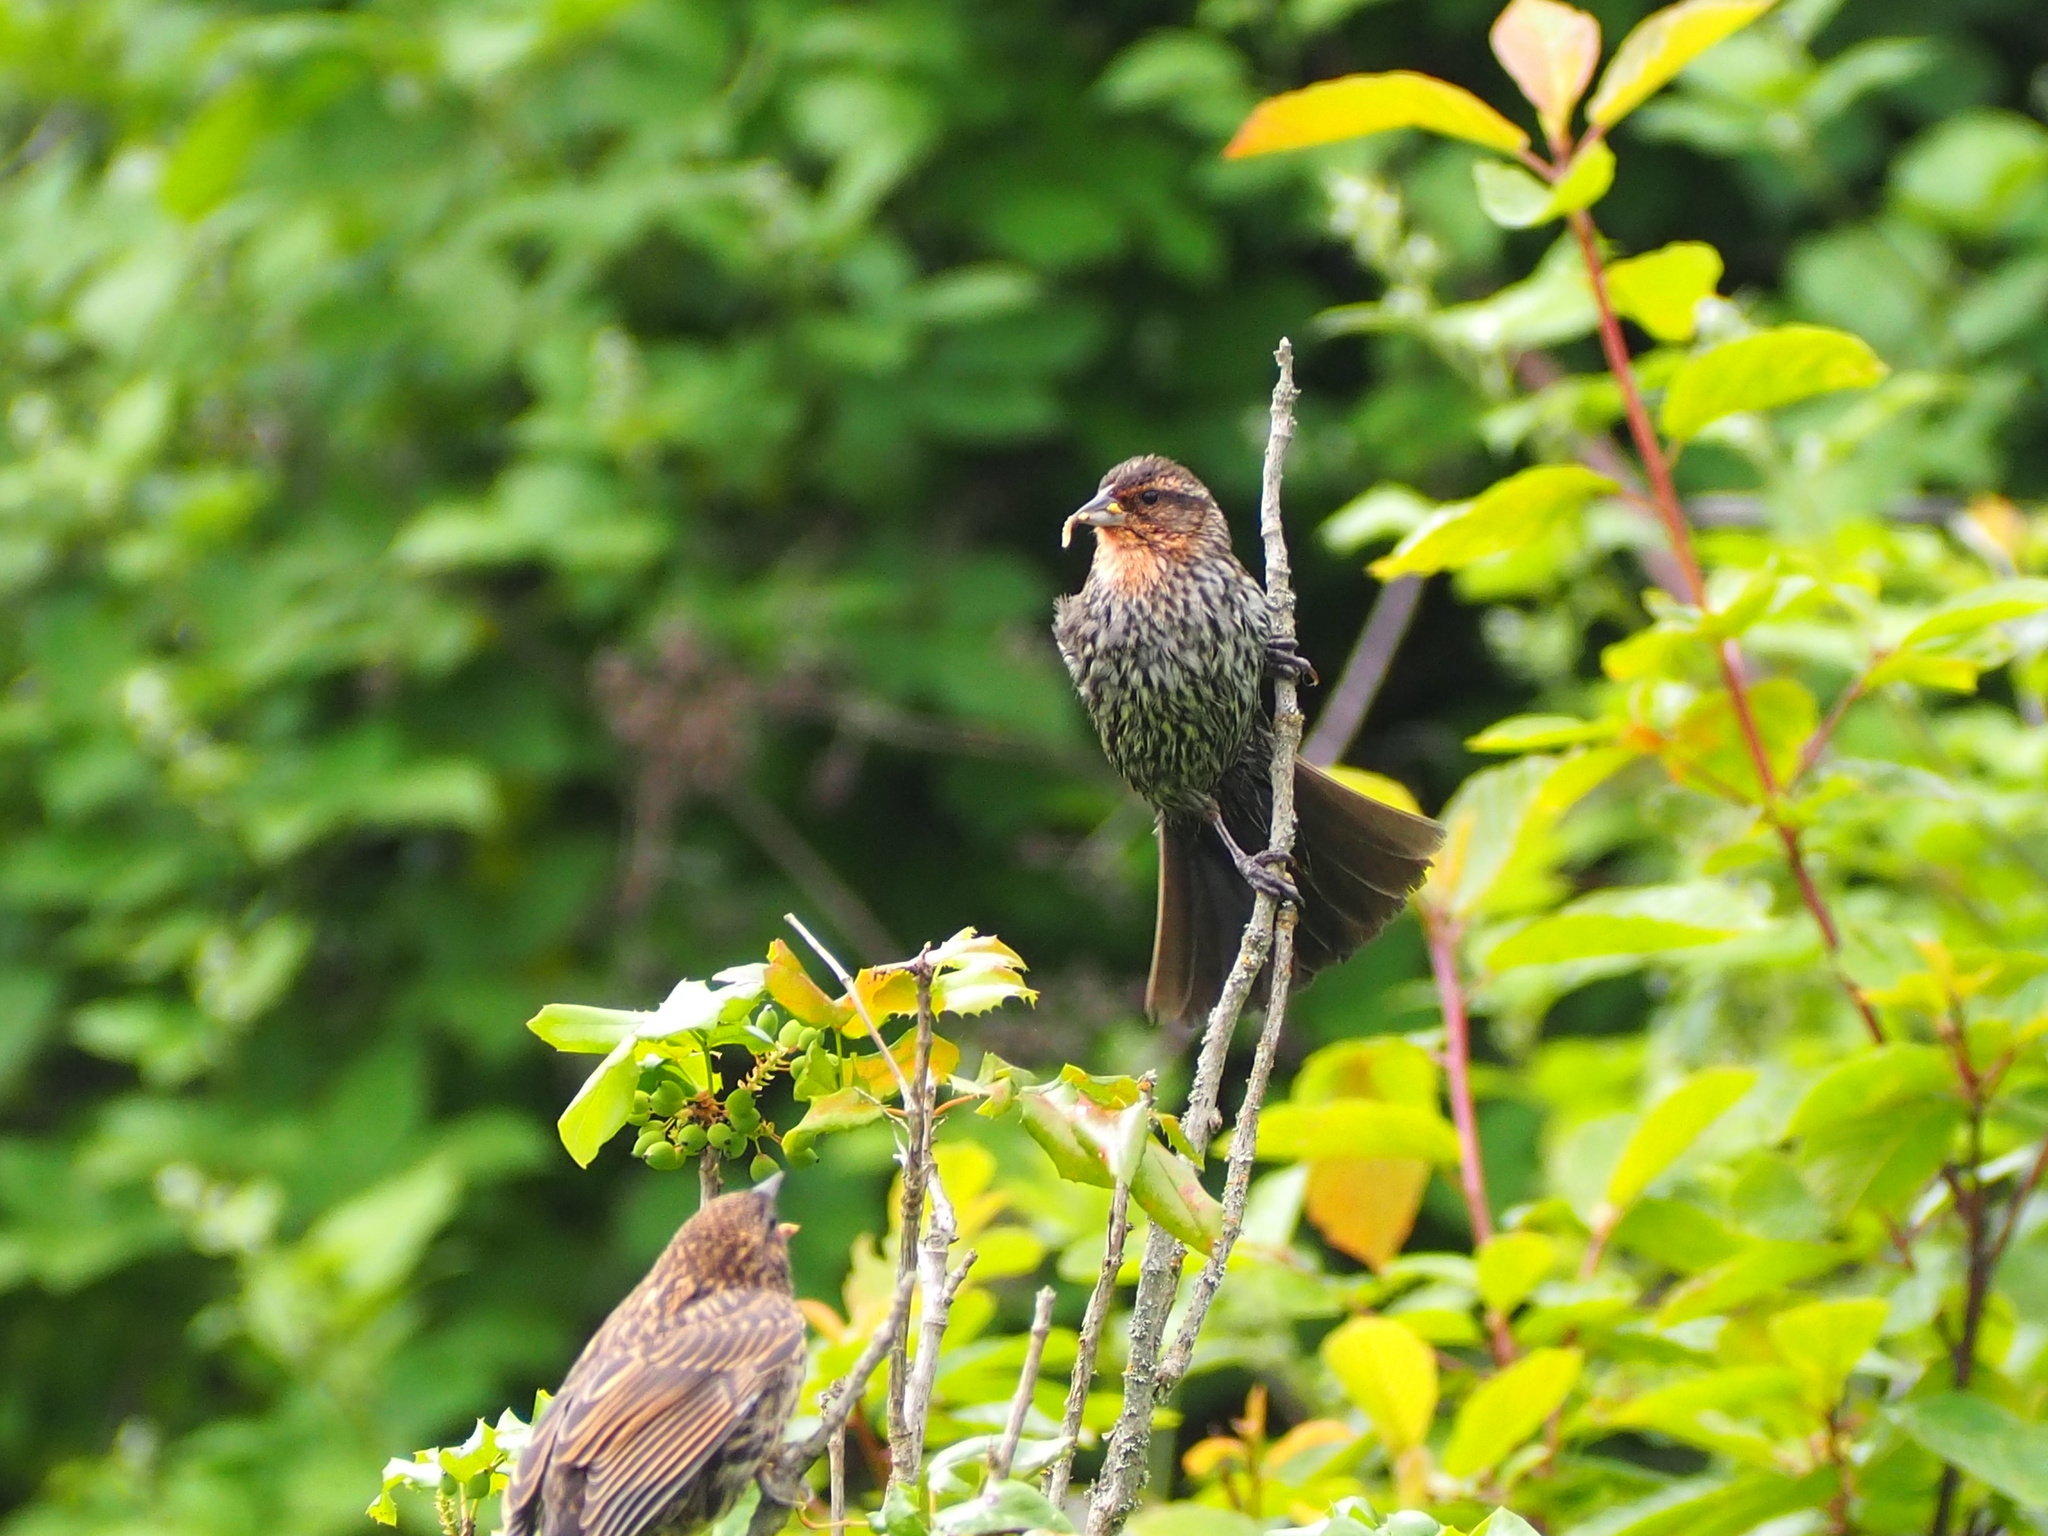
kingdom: Animalia
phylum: Chordata
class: Aves
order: Passeriformes
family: Icteridae
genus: Agelaius
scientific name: Agelaius phoeniceus
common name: Red-winged blackbird
